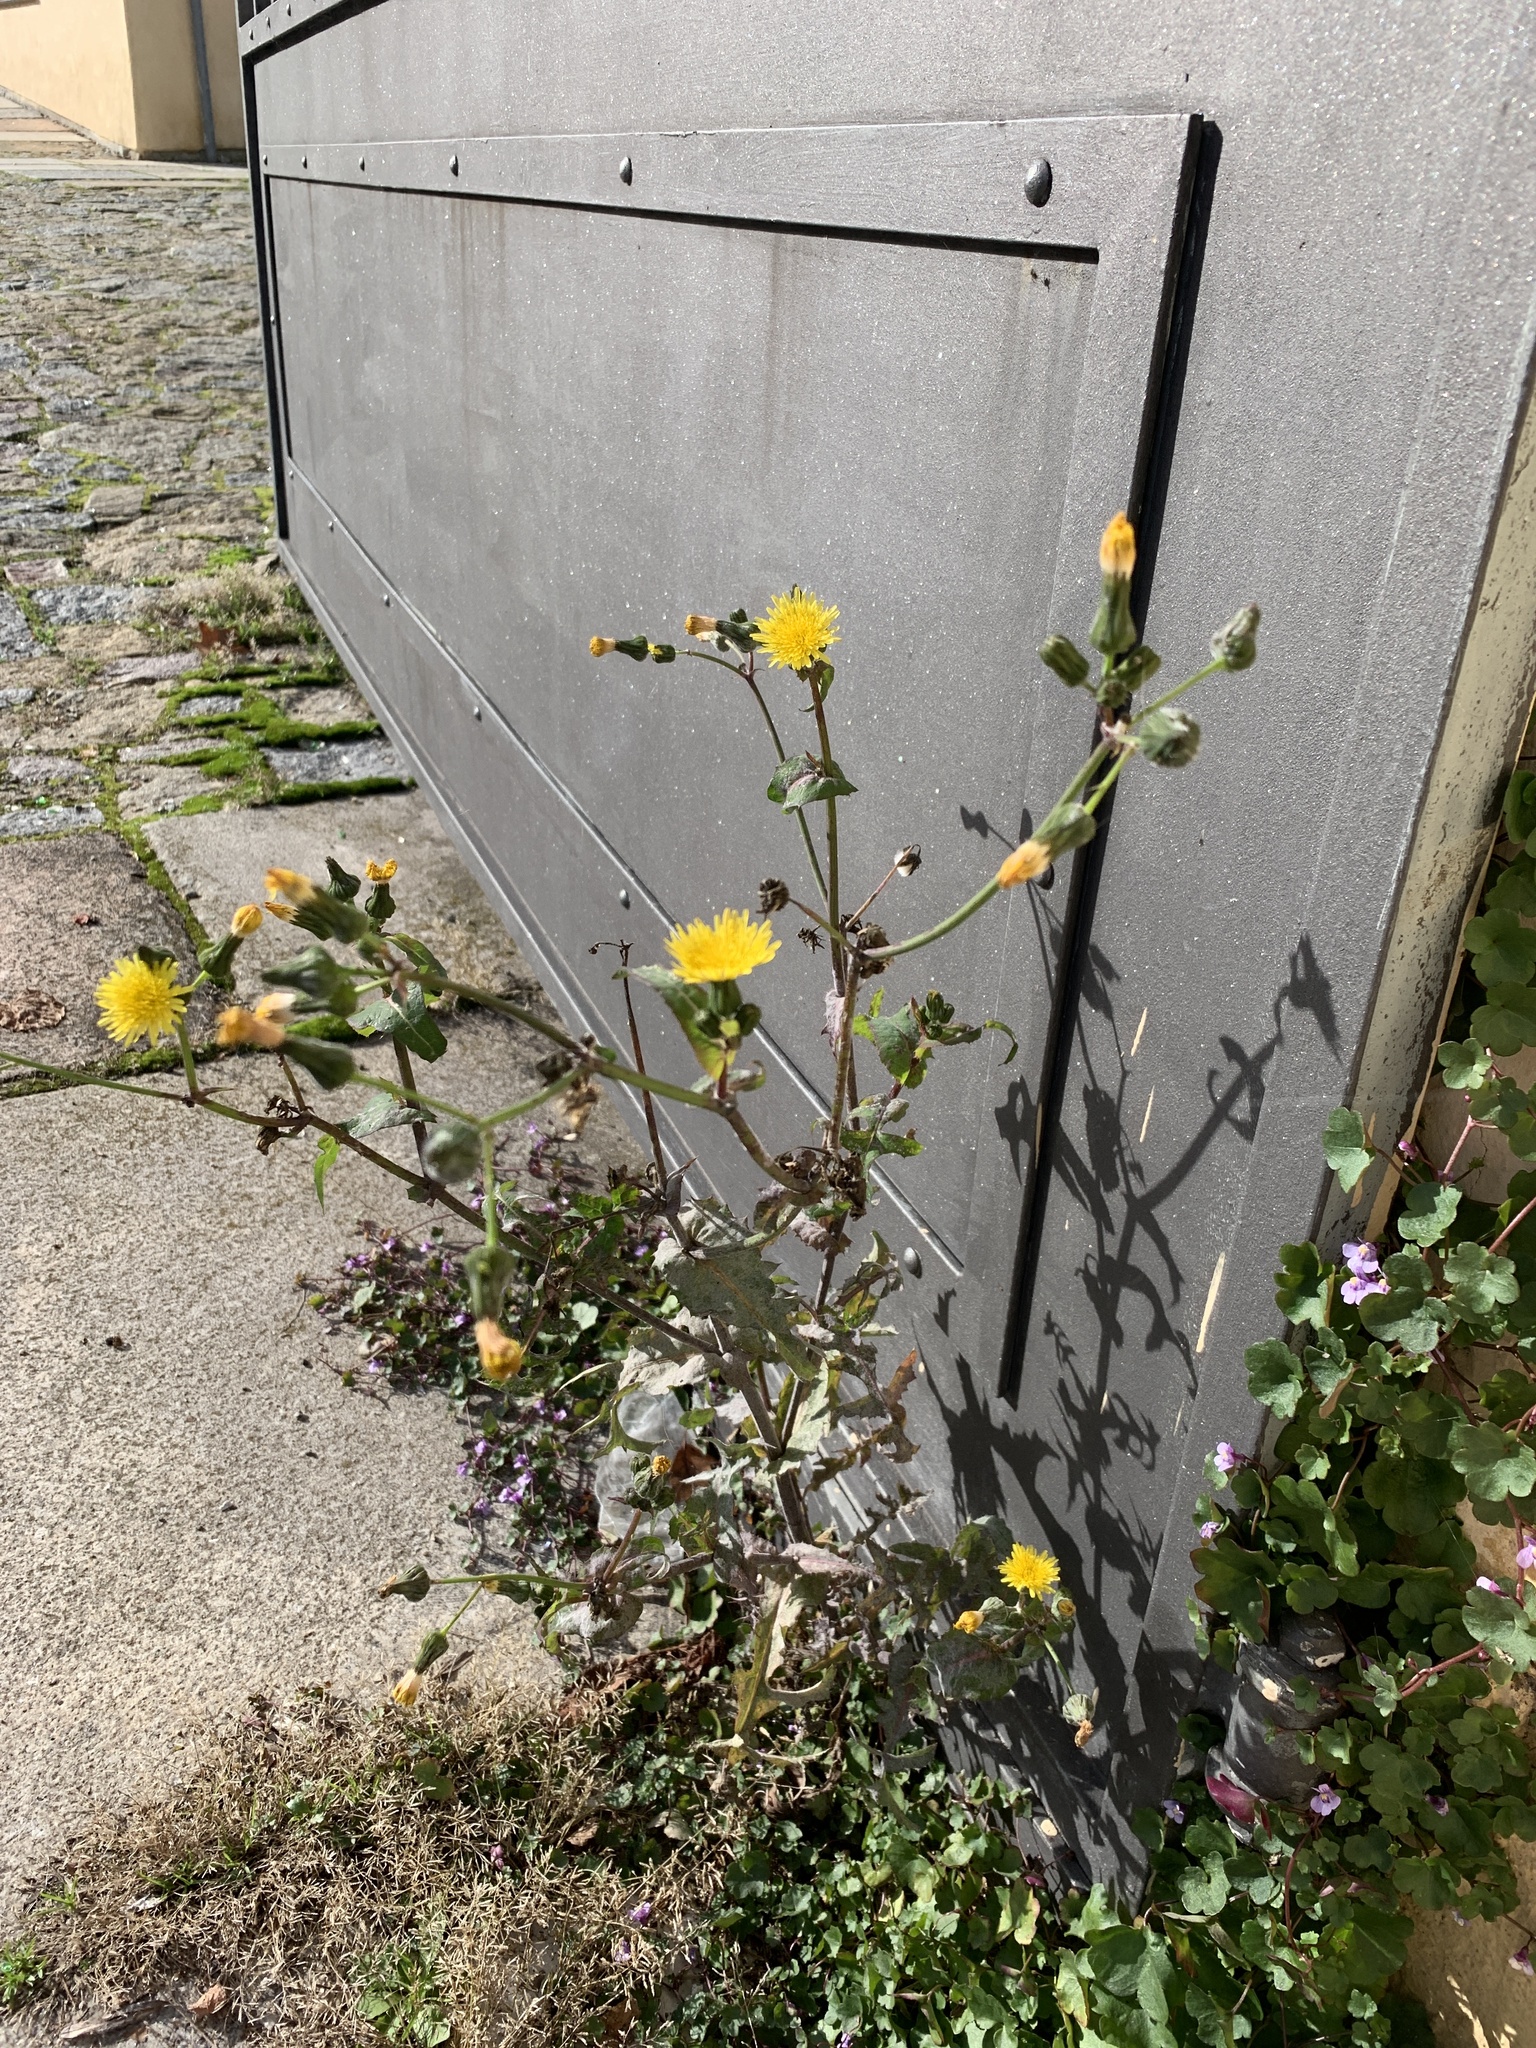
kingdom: Plantae
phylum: Tracheophyta
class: Magnoliopsida
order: Asterales
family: Asteraceae
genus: Sonchus
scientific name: Sonchus oleraceus
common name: Common sowthistle
